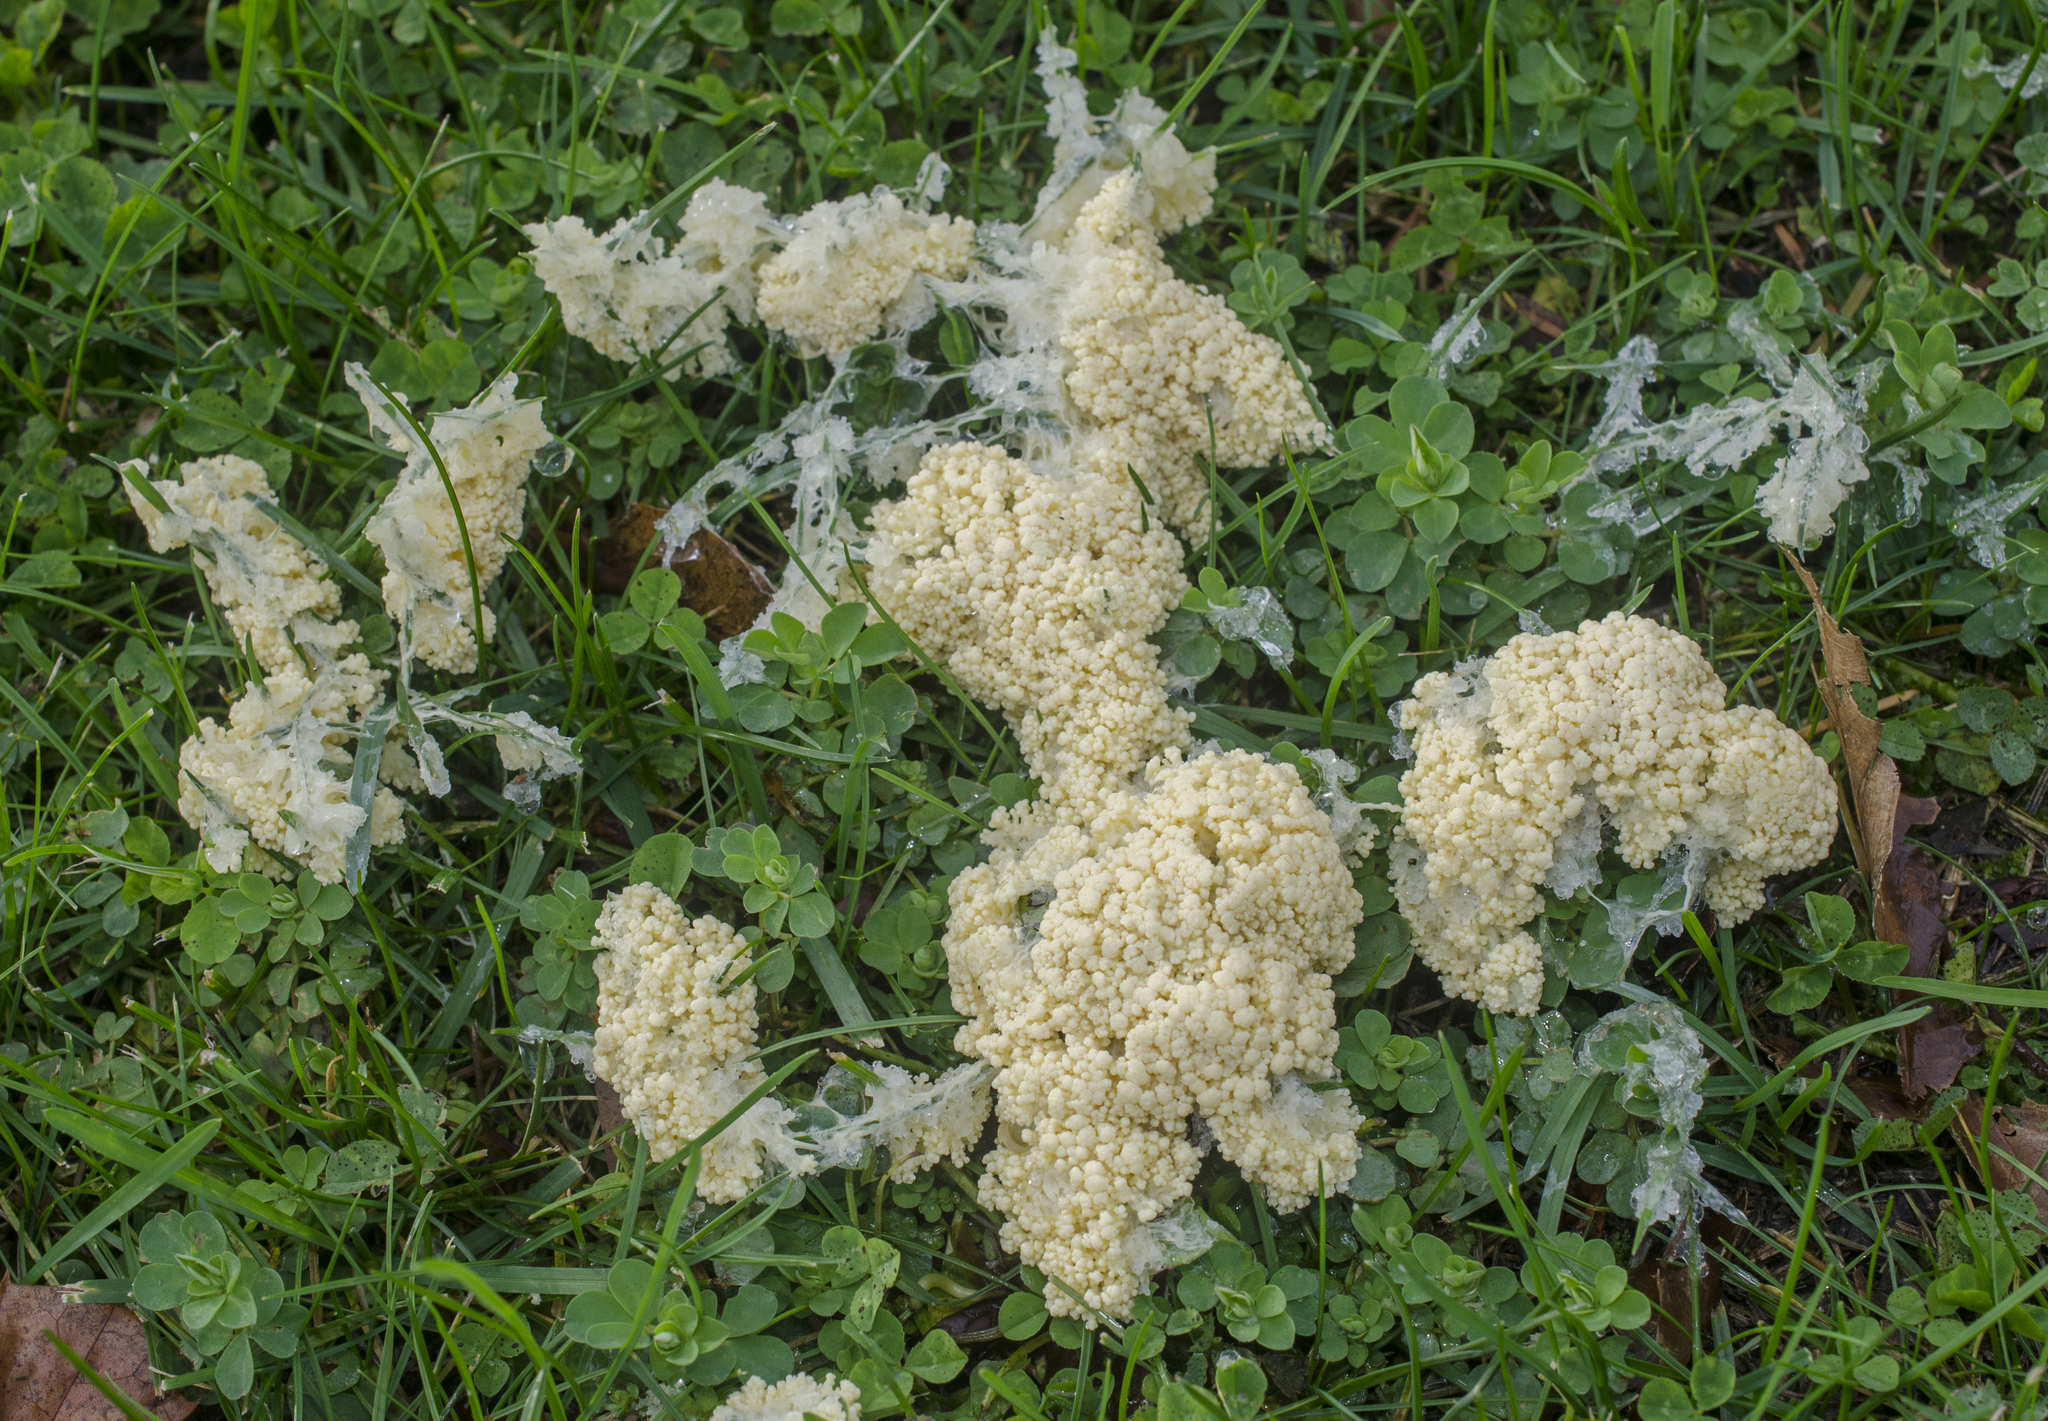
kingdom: Protozoa
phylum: Mycetozoa
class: Myxomycetes
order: Physarales
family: Physaraceae
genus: Didymium
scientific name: Didymium
